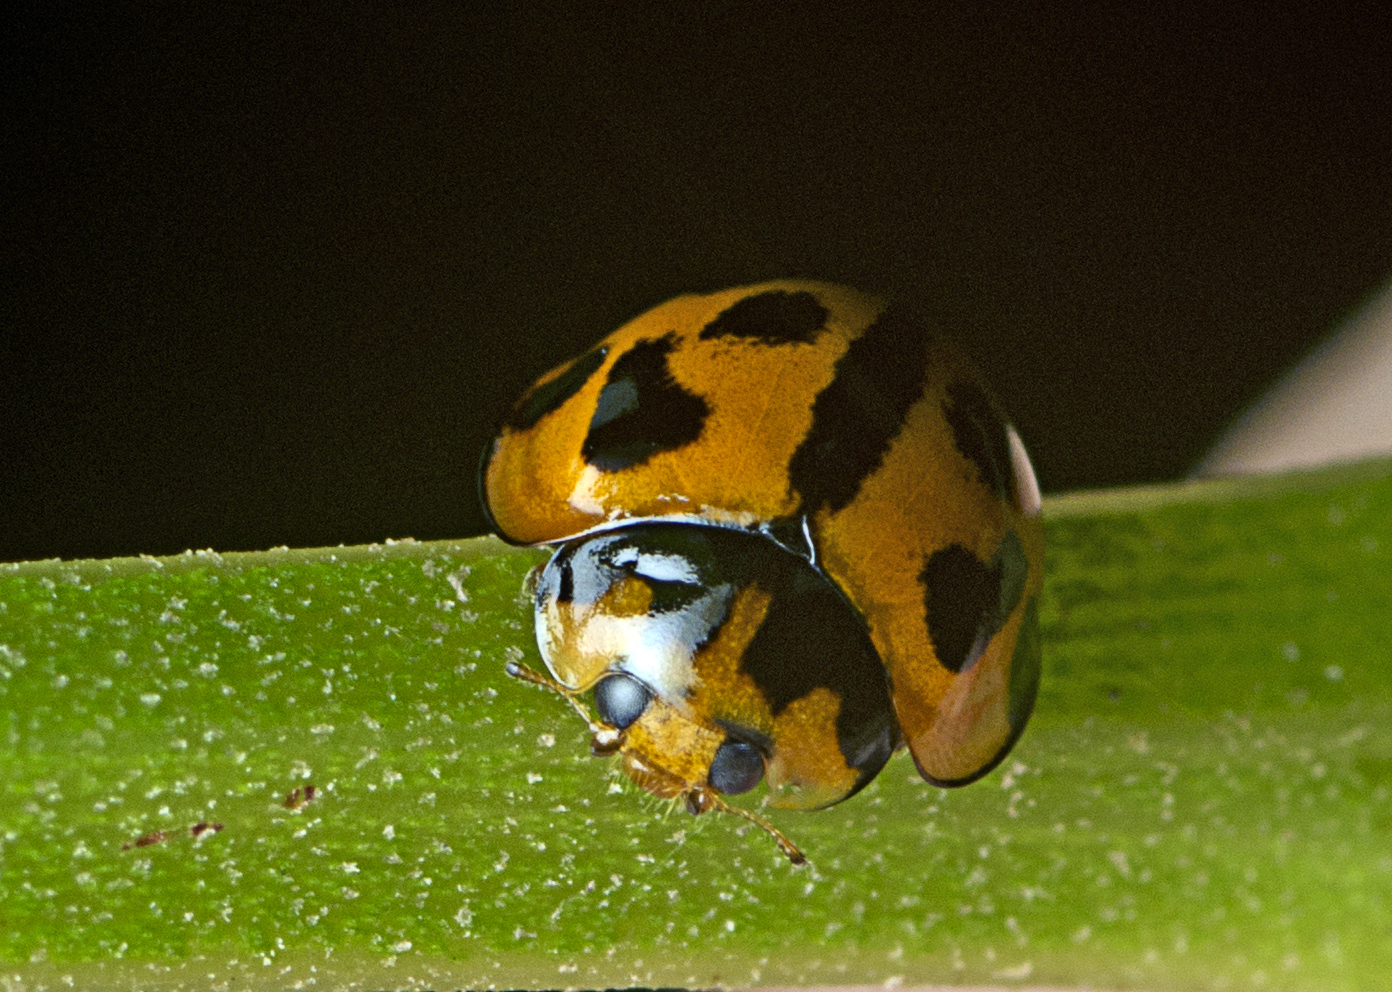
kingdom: Animalia
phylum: Arthropoda
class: Insecta
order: Coleoptera
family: Coccinellidae
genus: Coelophora
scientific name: Coelophora inaequalis
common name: Common australian lady beetle
